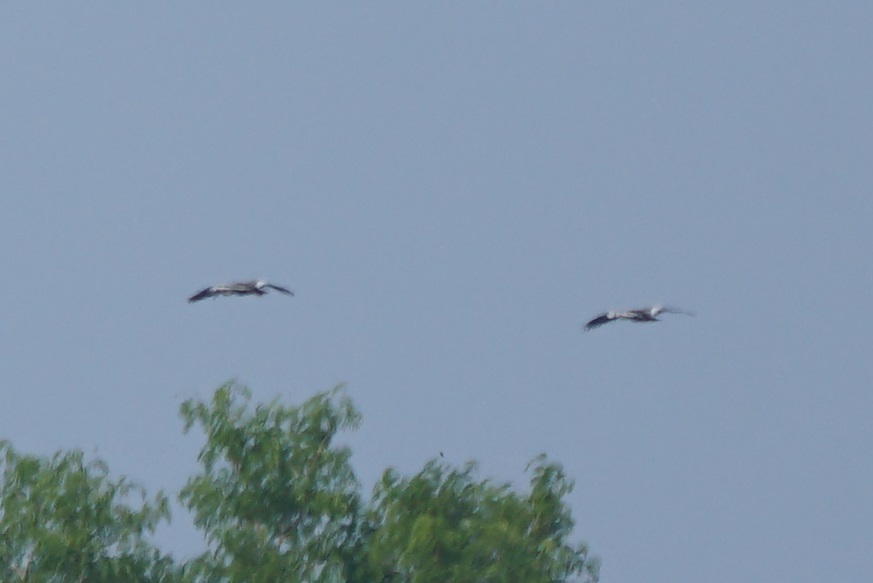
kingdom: Animalia
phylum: Chordata
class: Aves
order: Pelecaniformes
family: Threskiornithidae
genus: Theristicus
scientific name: Theristicus caudatus
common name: Buff-necked ibis
